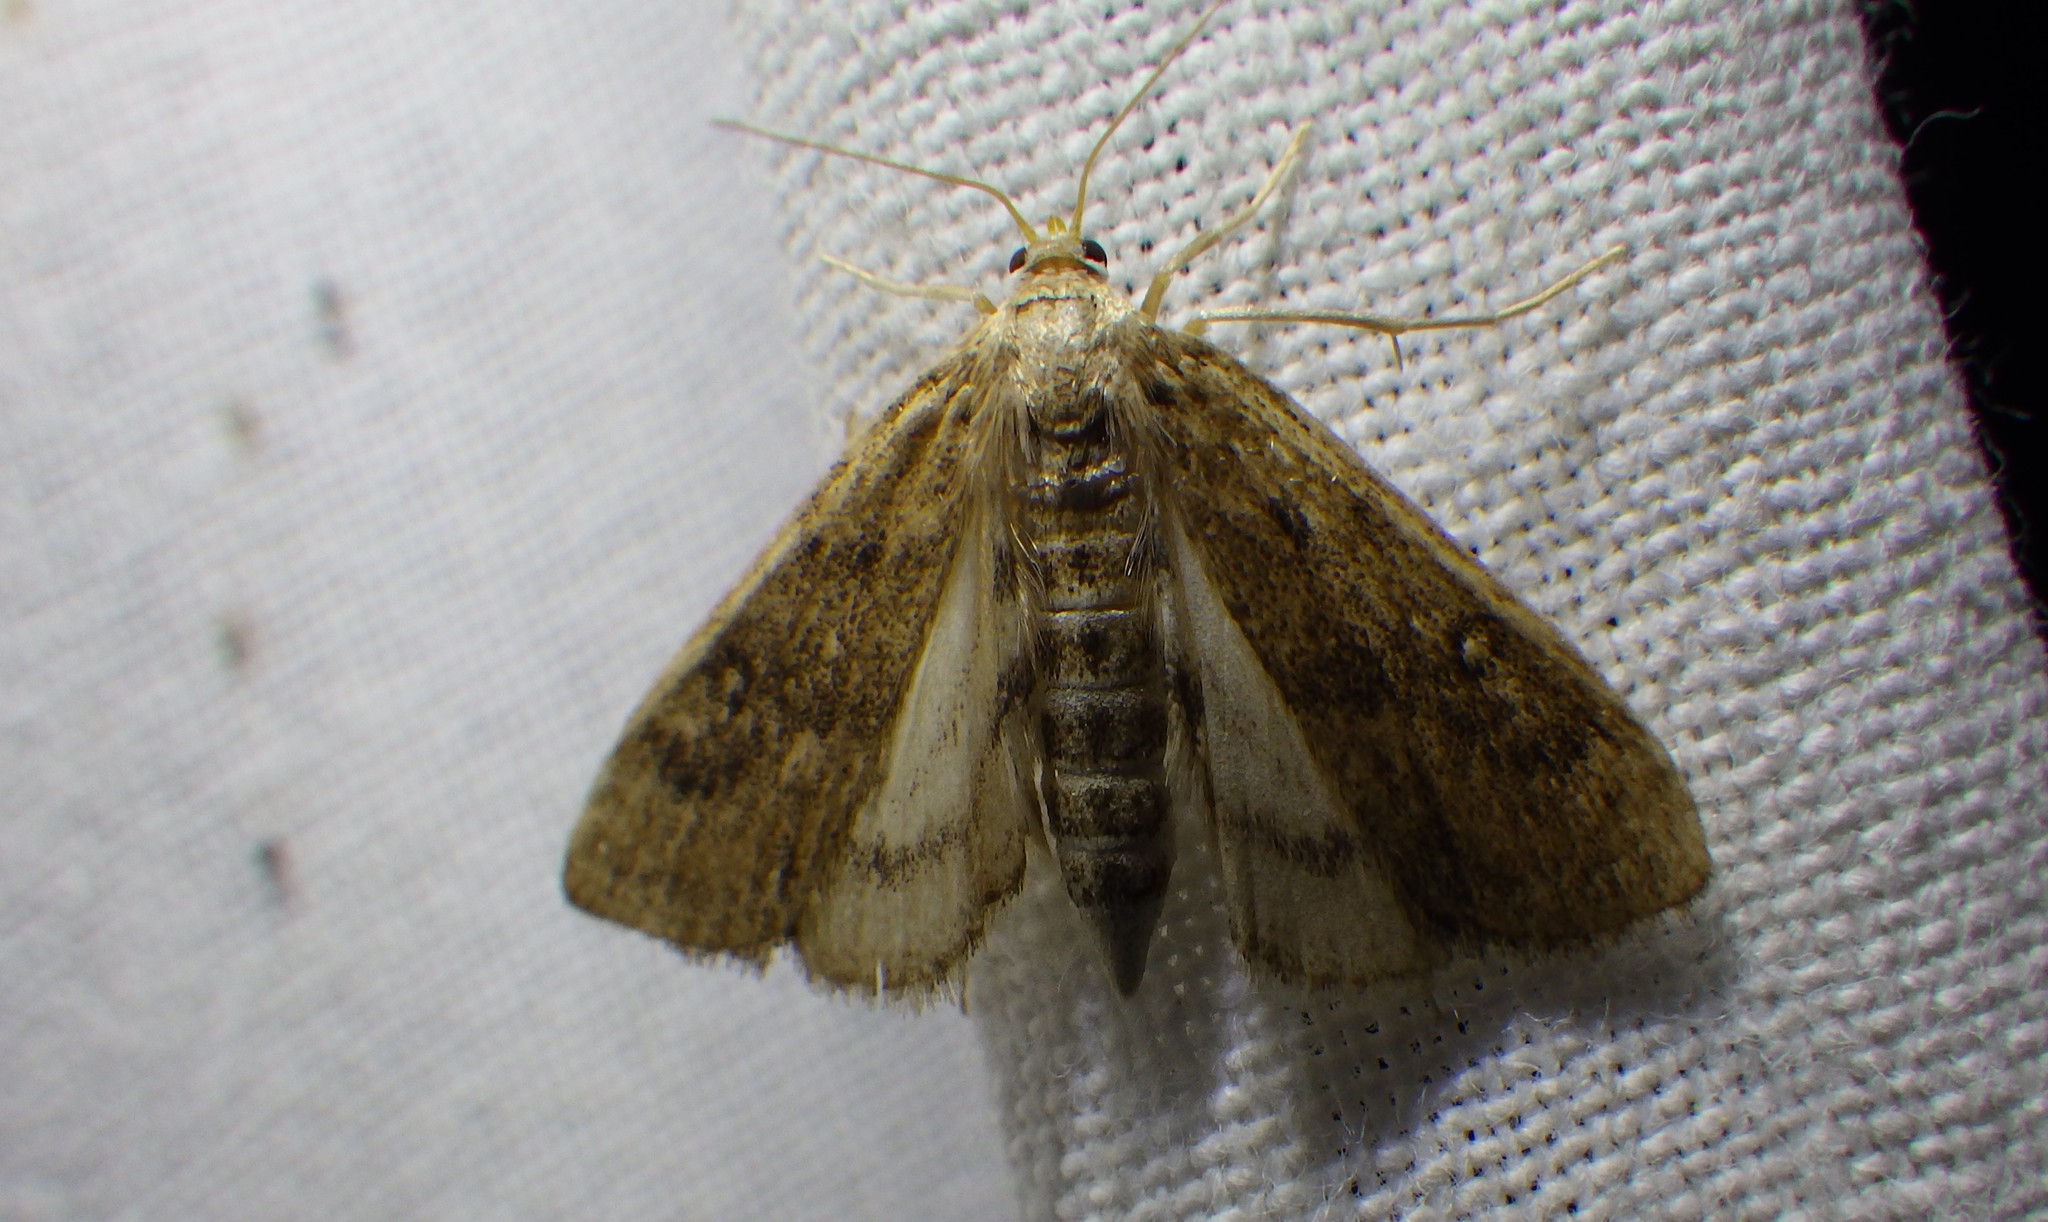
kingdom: Animalia
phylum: Arthropoda
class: Insecta
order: Lepidoptera
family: Crambidae
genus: Parapoynx
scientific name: Parapoynx stratiotata
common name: Ringed china-mark
